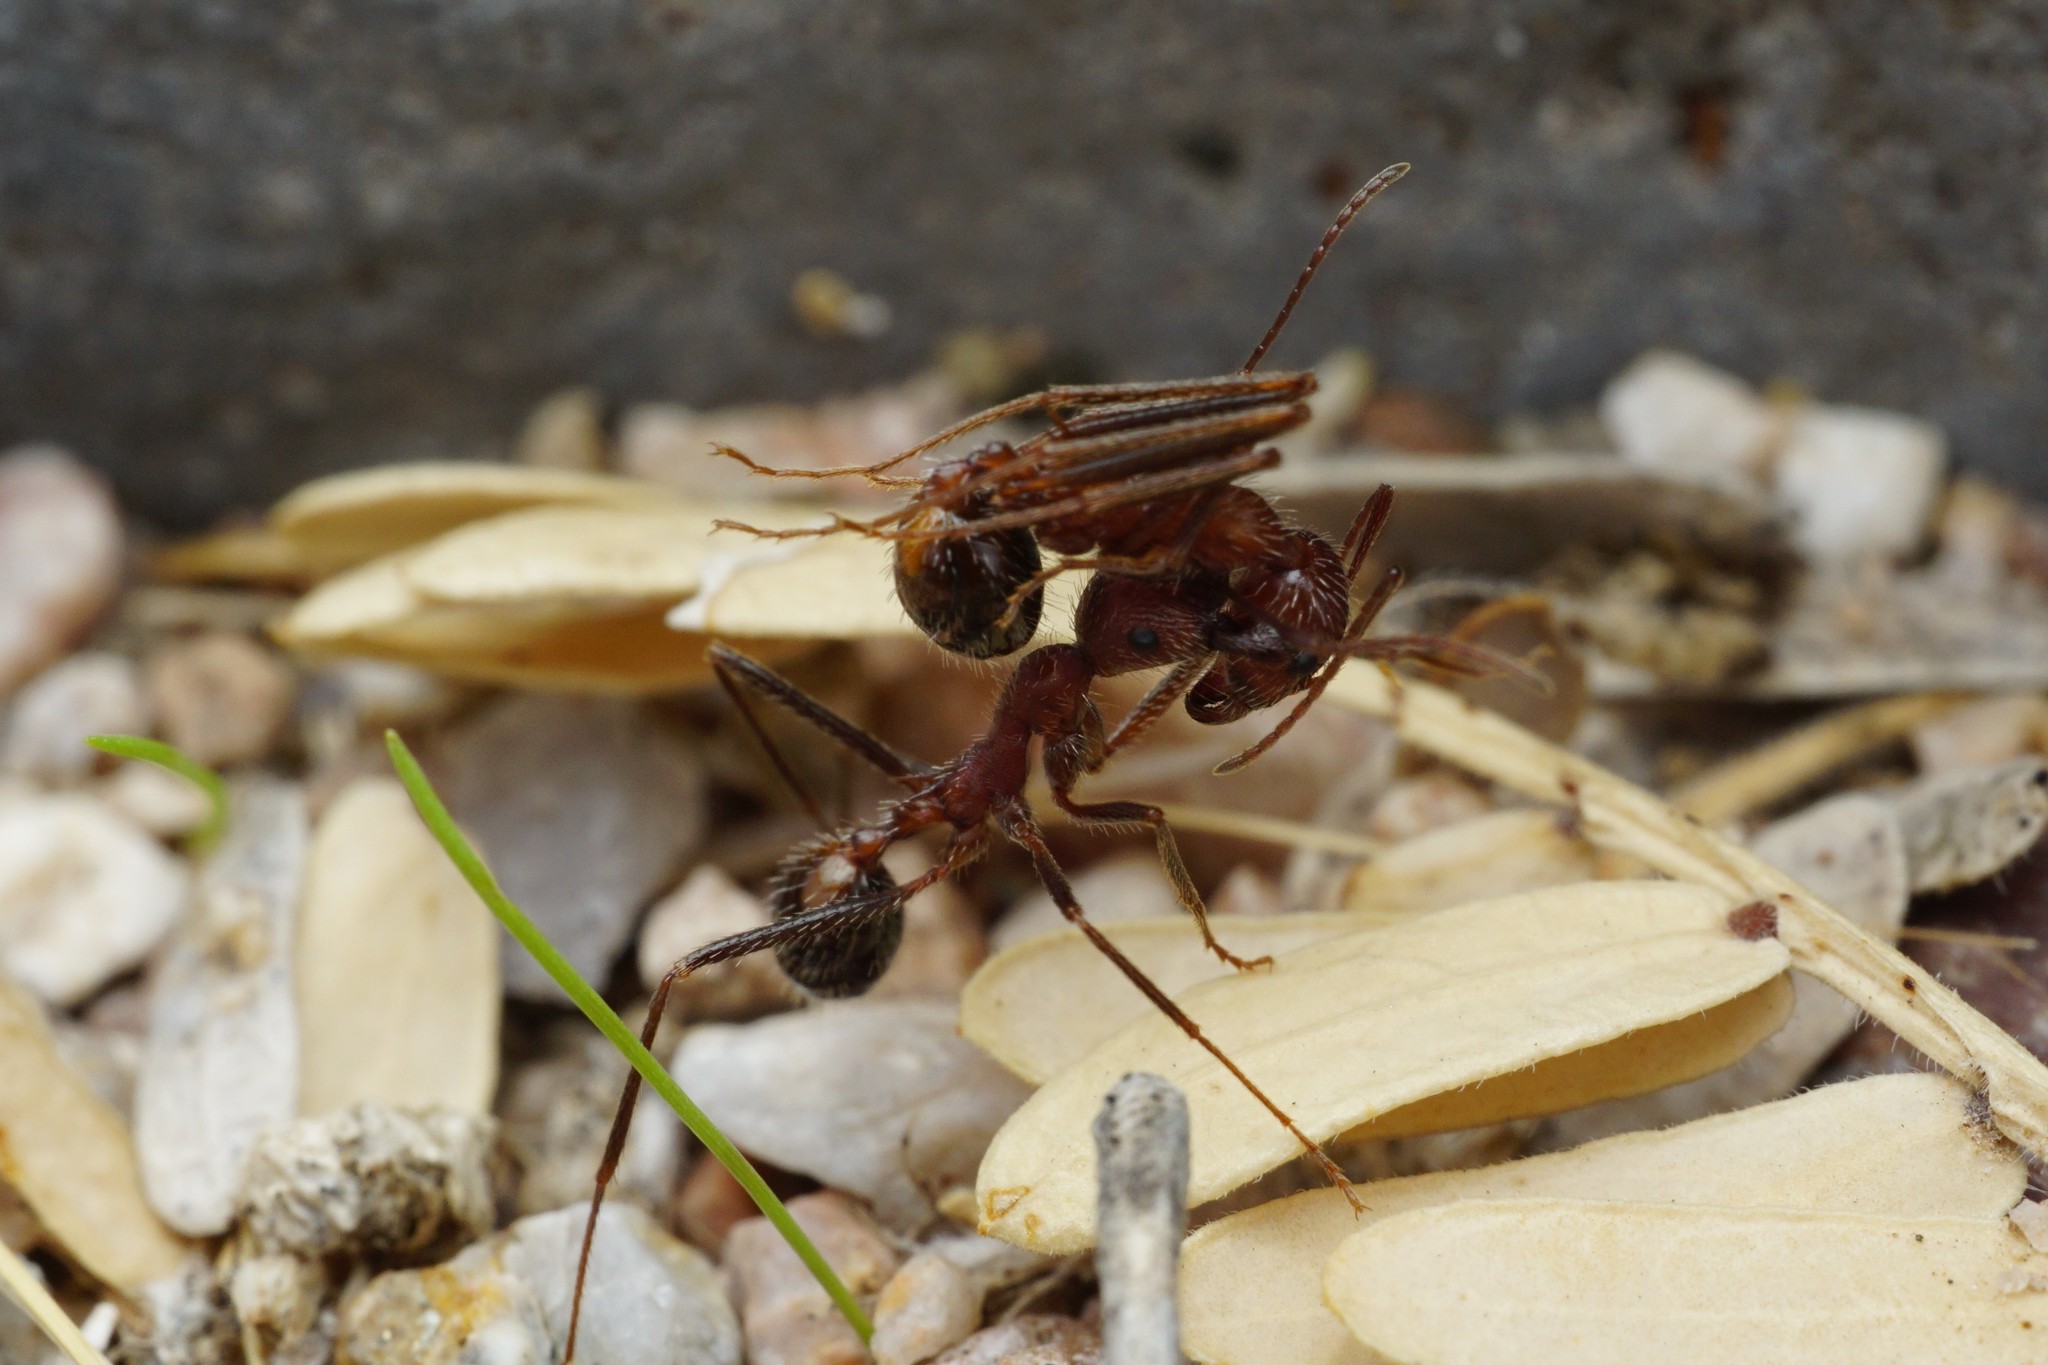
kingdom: Animalia
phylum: Arthropoda
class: Insecta
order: Hymenoptera
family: Formicidae
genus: Novomessor
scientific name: Novomessor albisetosa
